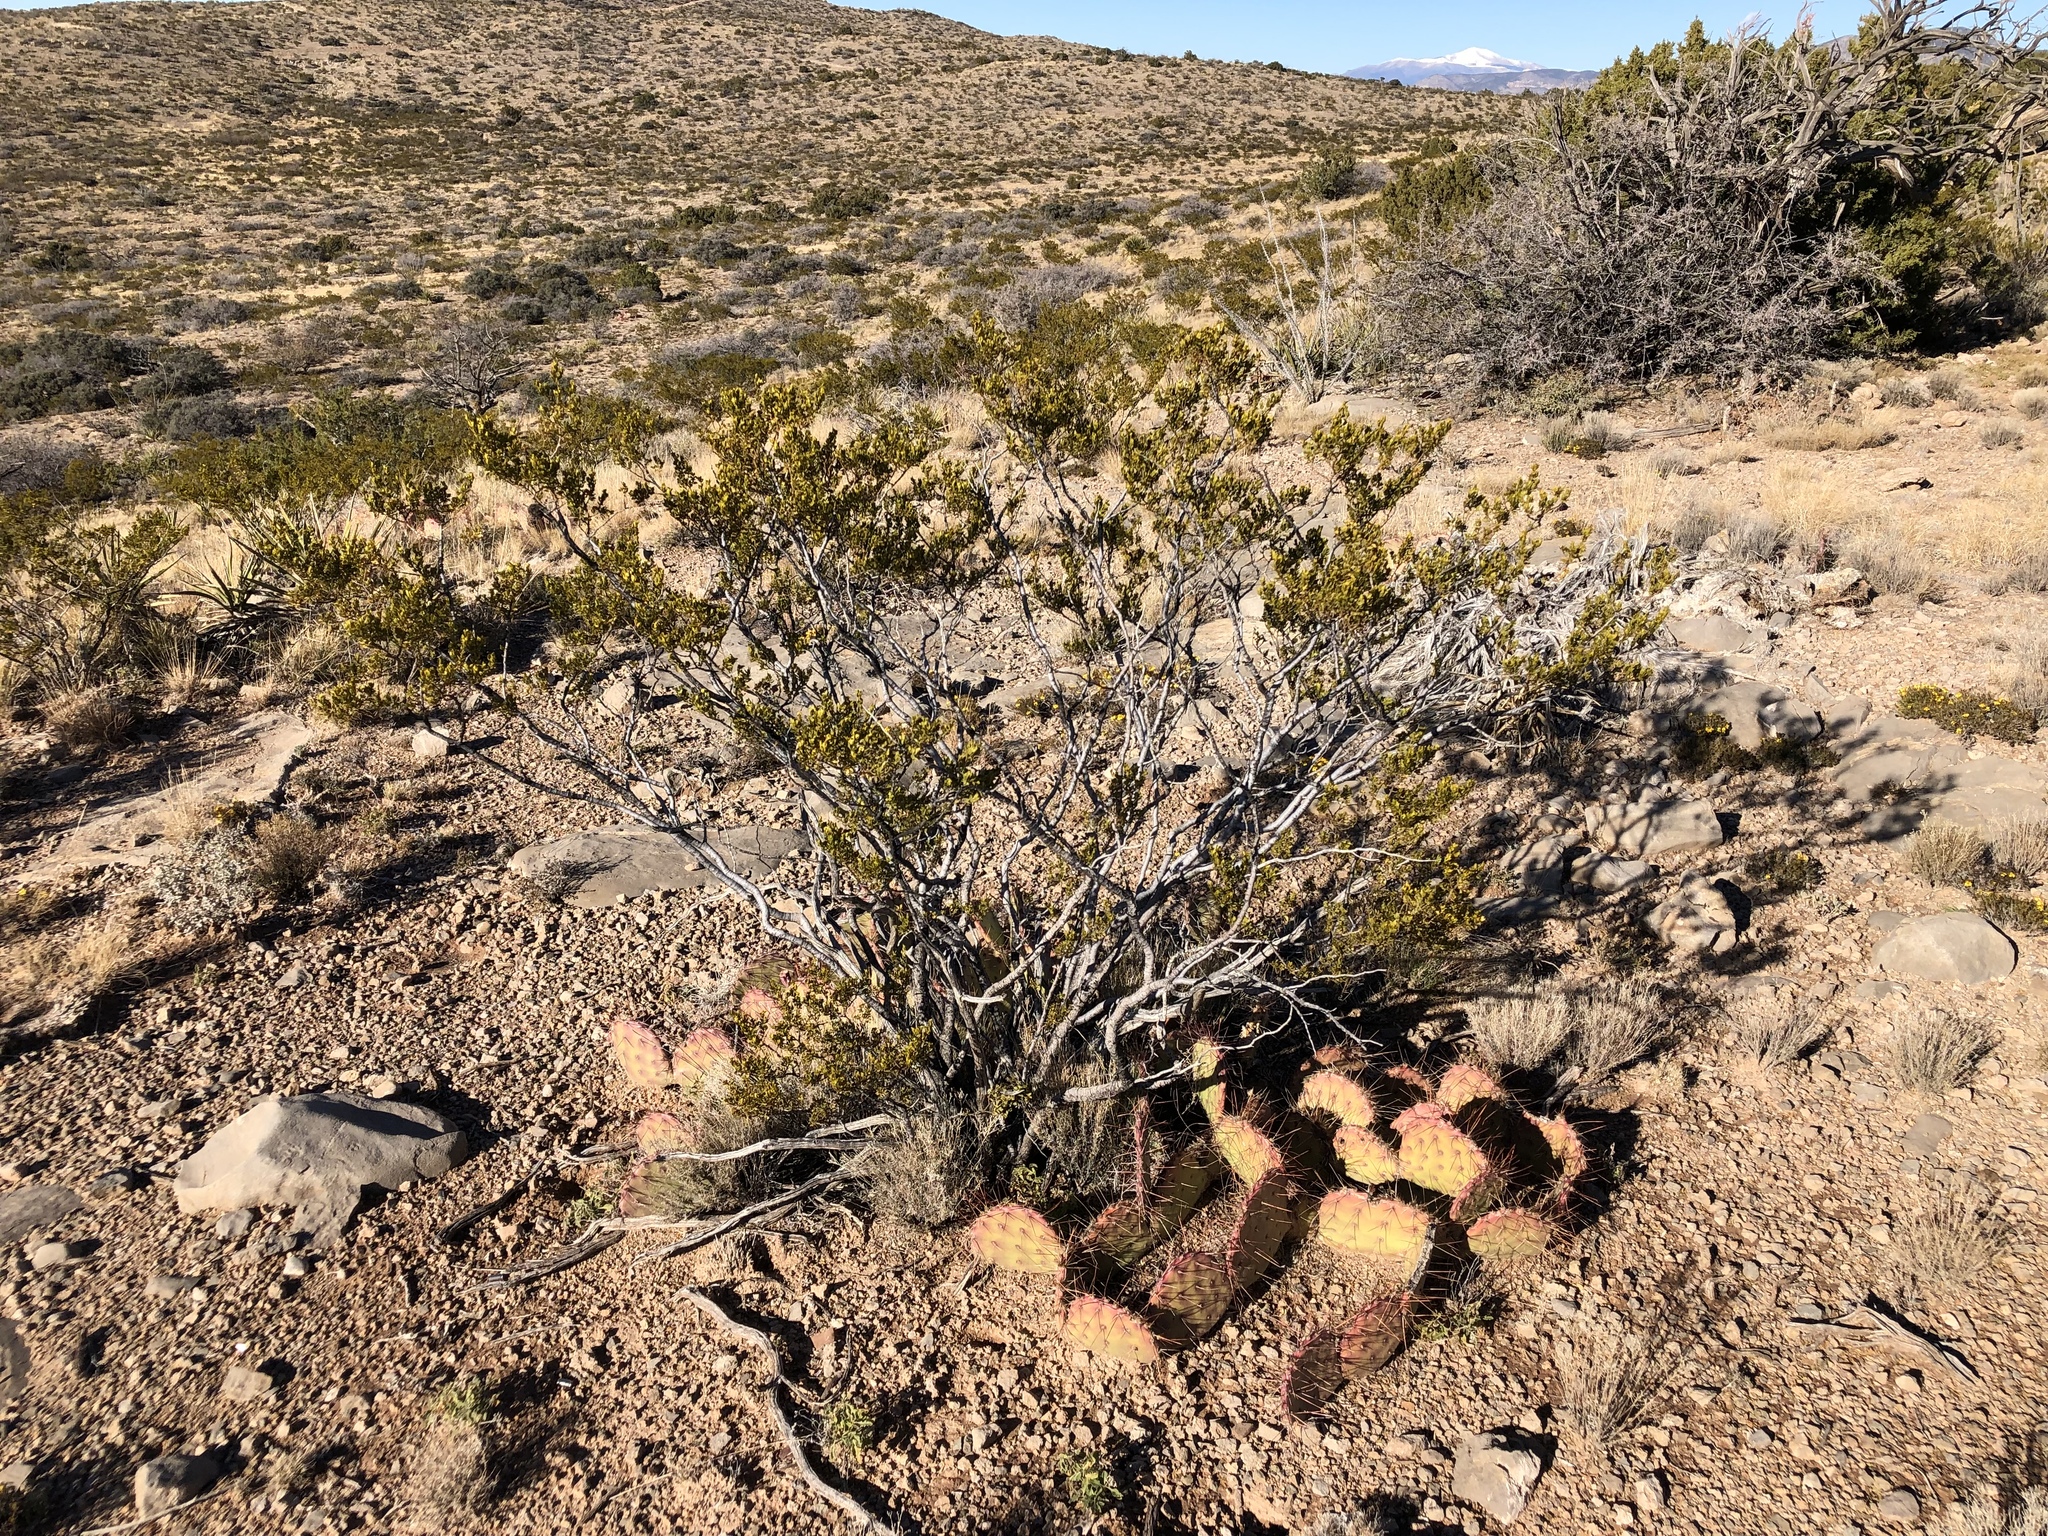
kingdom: Plantae
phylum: Tracheophyta
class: Magnoliopsida
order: Zygophyllales
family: Zygophyllaceae
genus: Larrea
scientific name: Larrea tridentata
